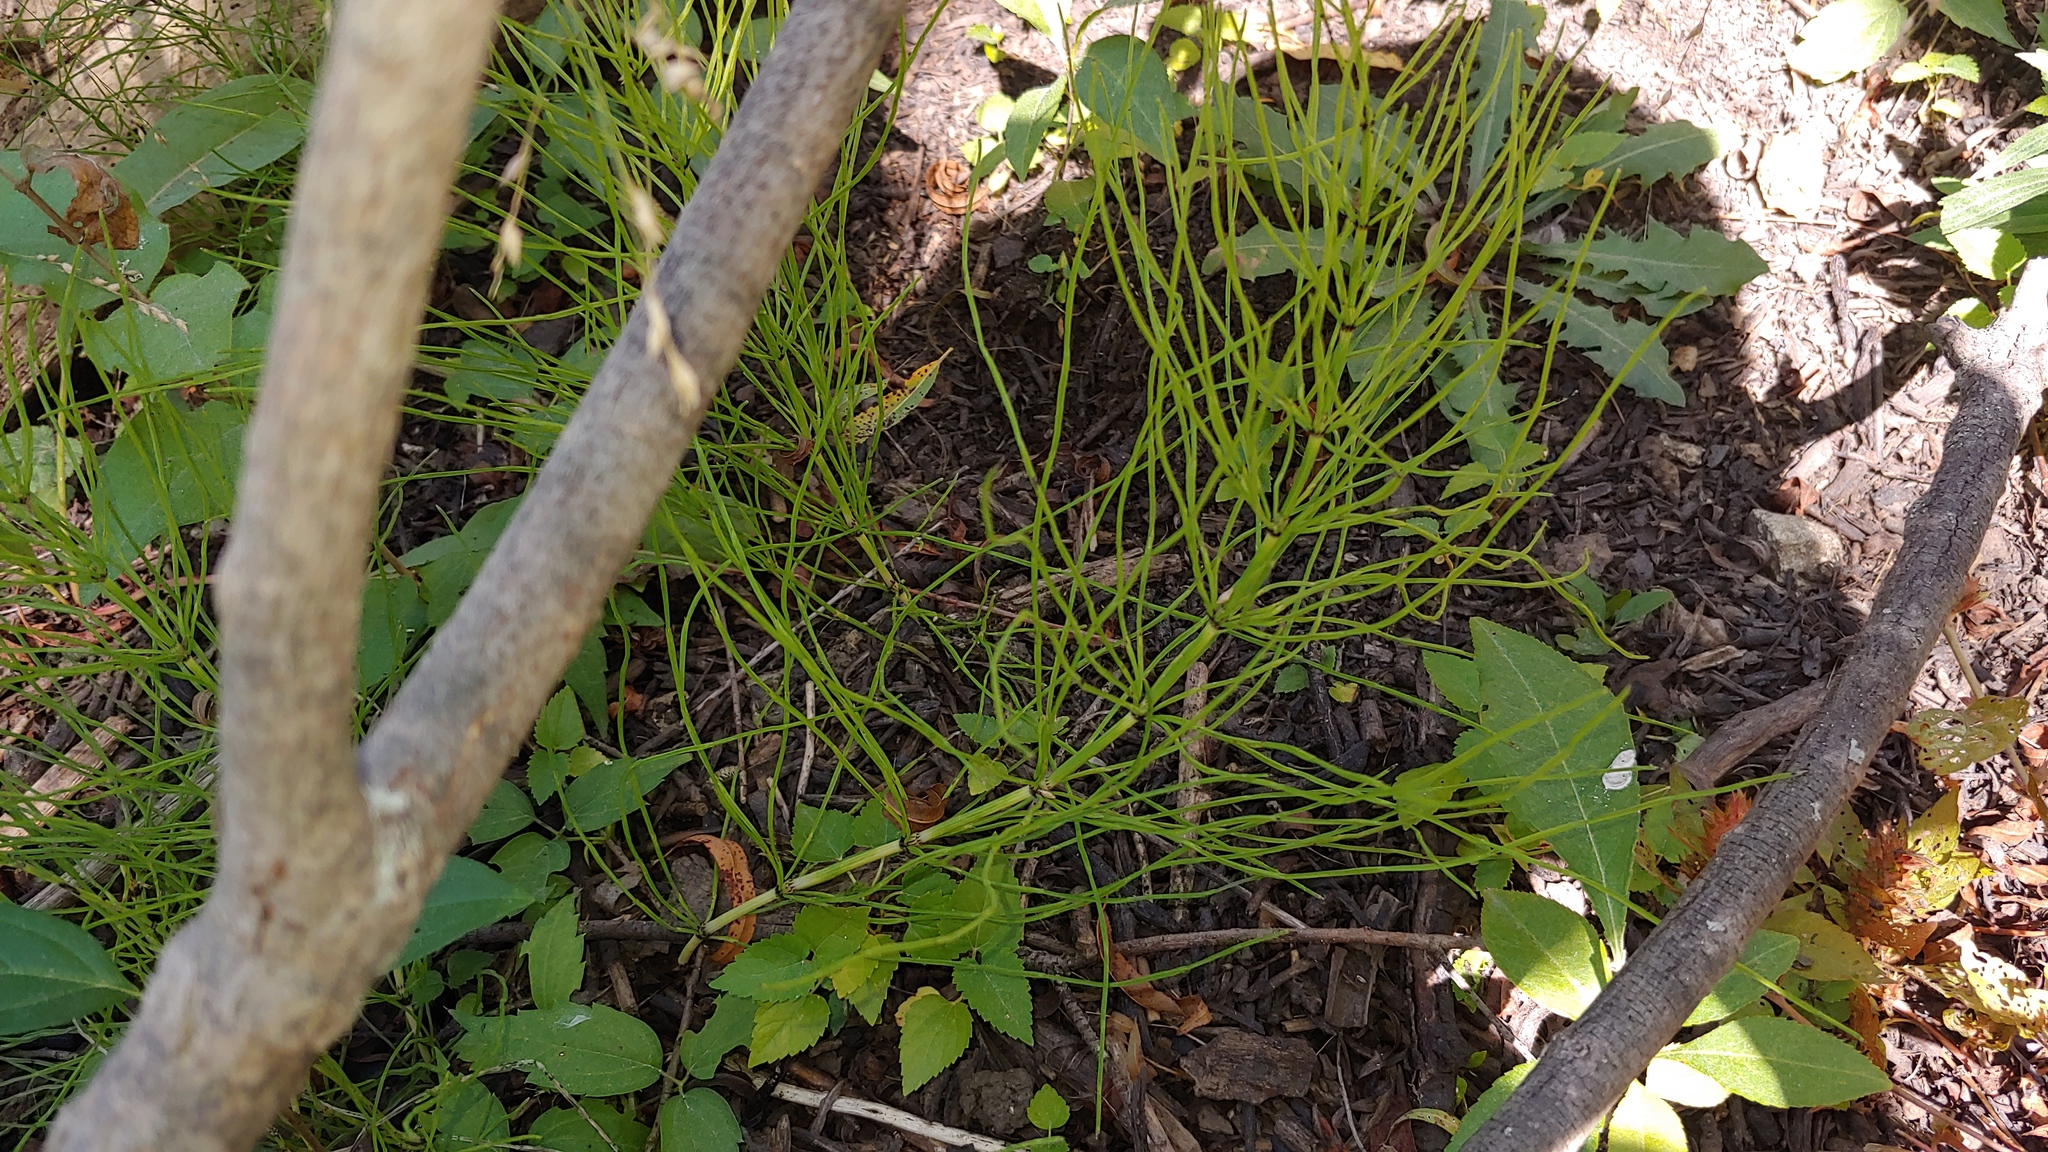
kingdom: Plantae
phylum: Tracheophyta
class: Polypodiopsida
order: Equisetales
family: Equisetaceae
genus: Equisetum
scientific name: Equisetum arvense
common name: Field horsetail
